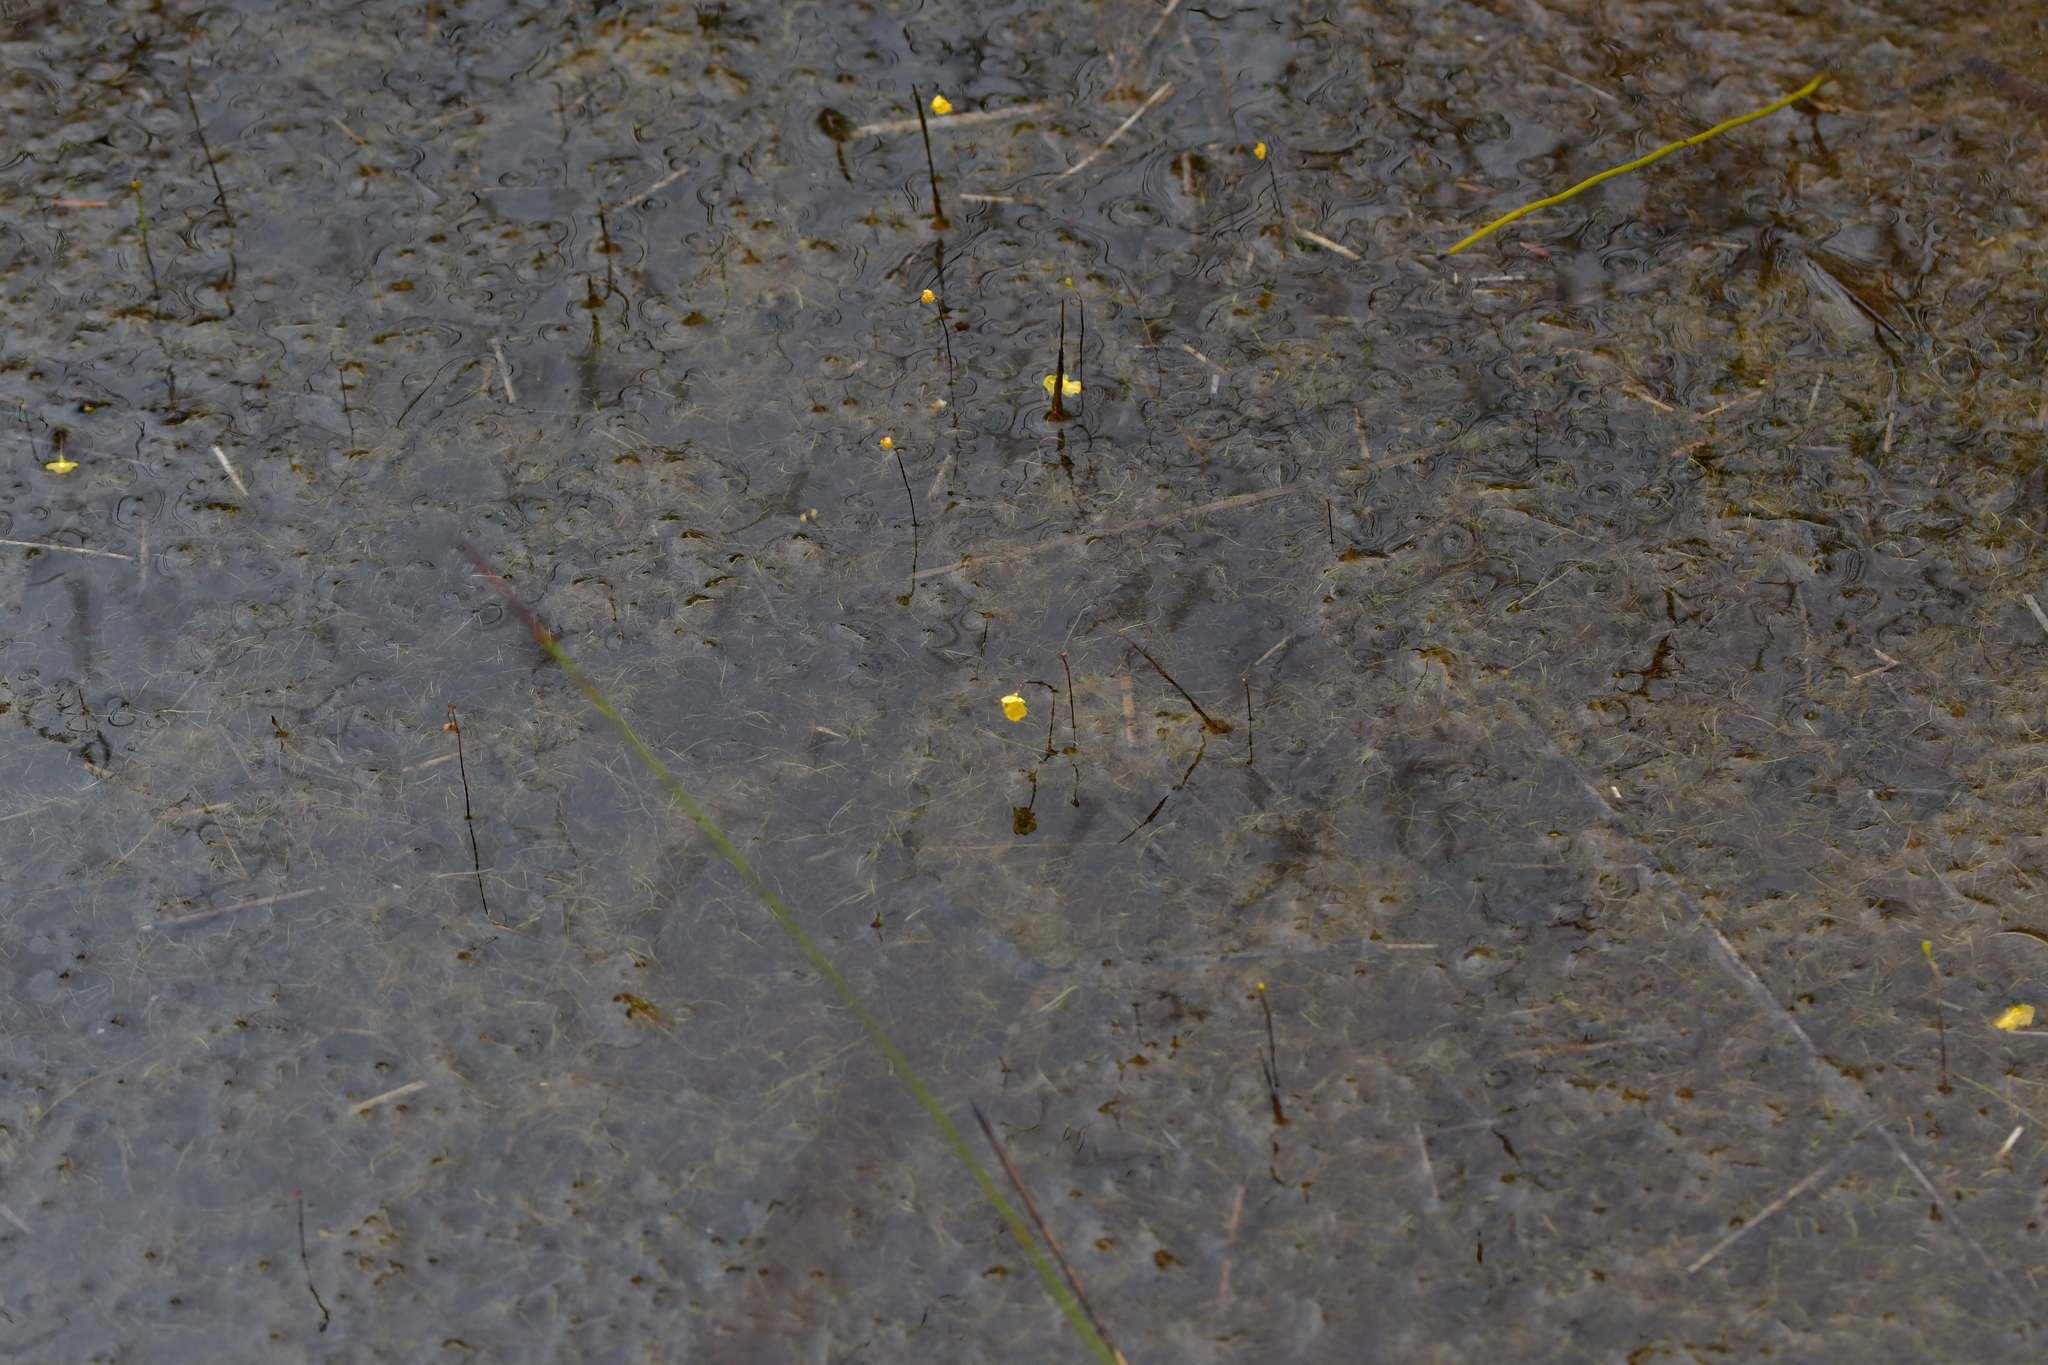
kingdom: Plantae
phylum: Tracheophyta
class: Magnoliopsida
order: Lamiales
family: Lentibulariaceae
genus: Utricularia
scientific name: Utricularia gibba
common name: Humped bladderwort
